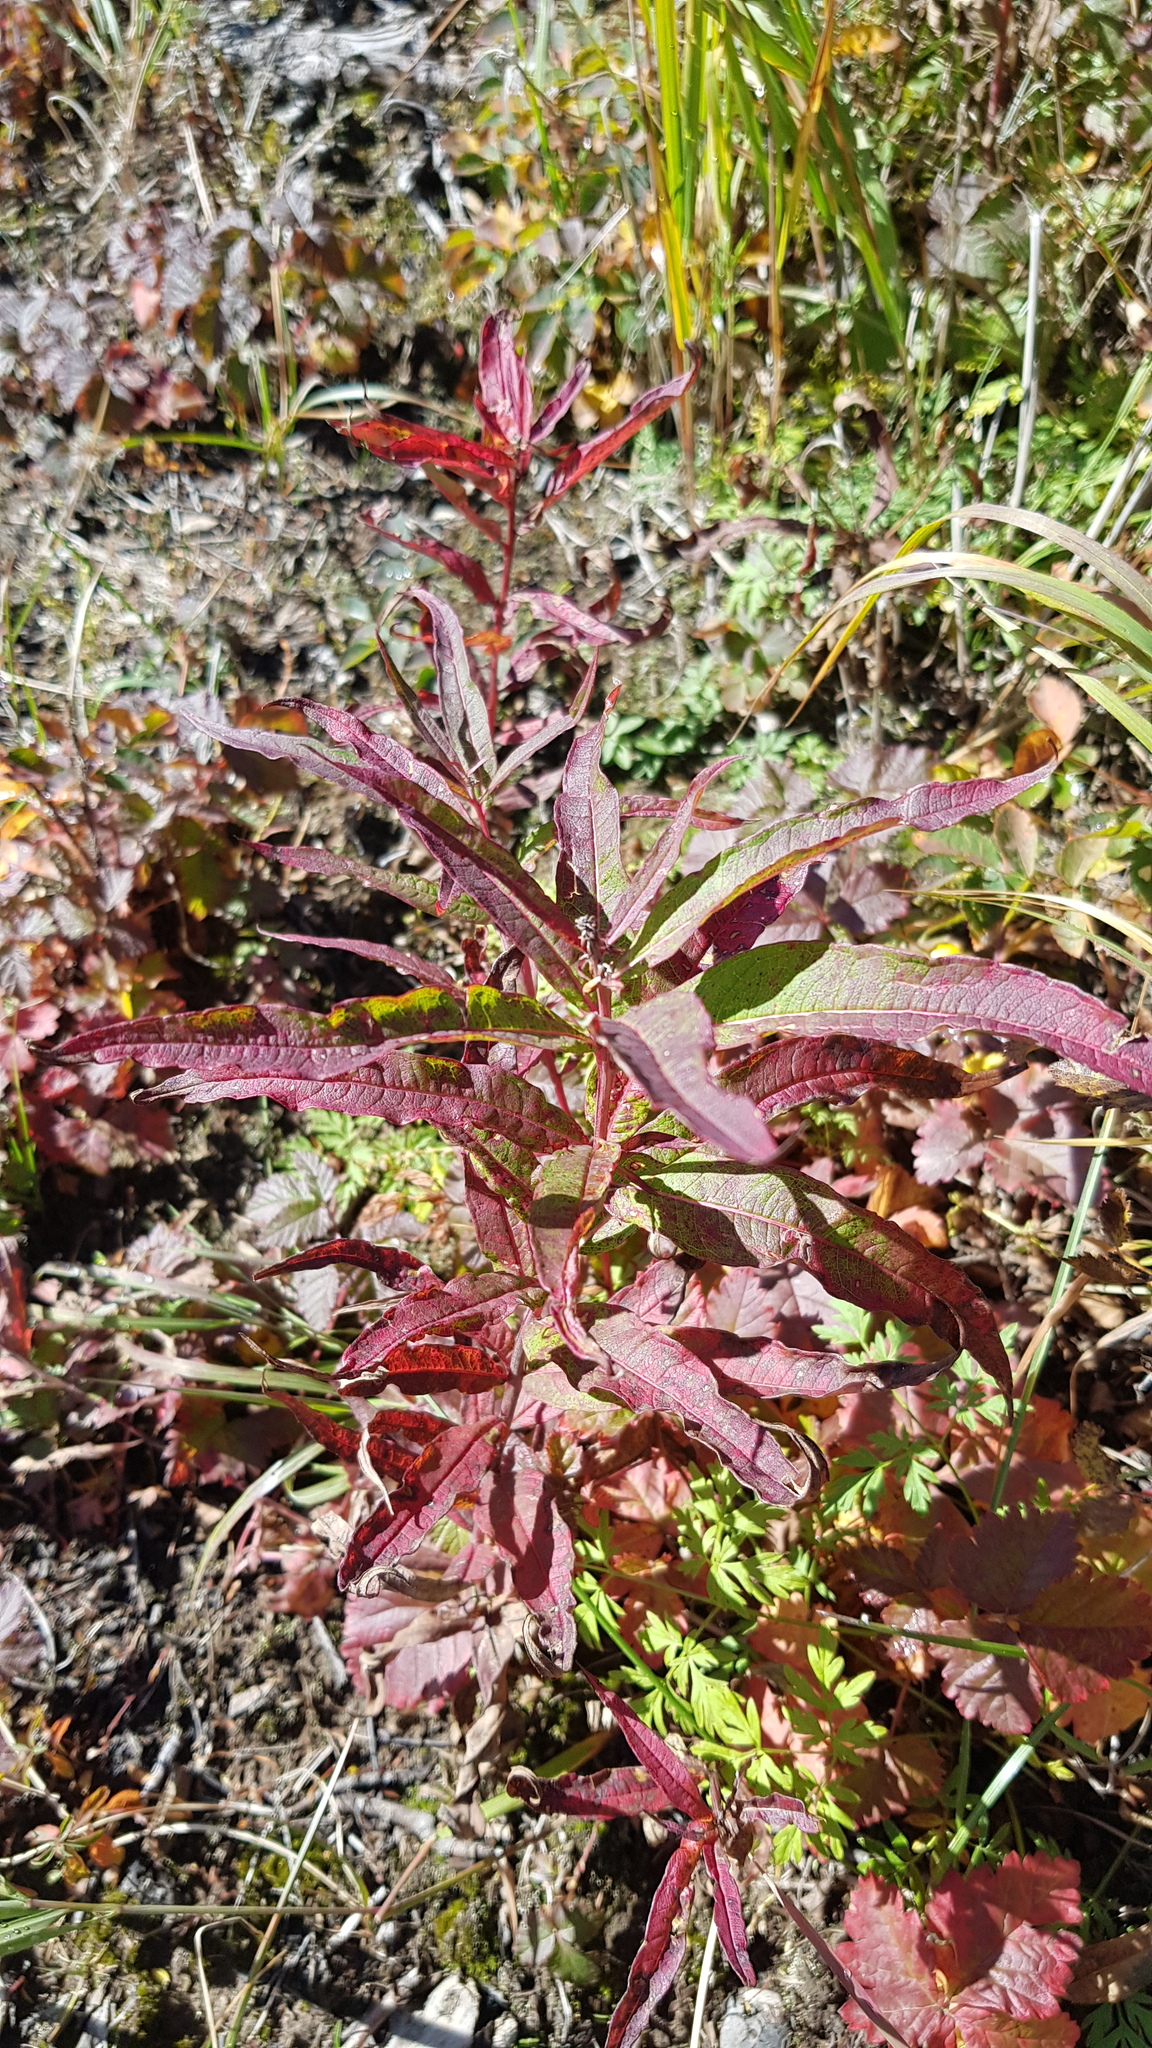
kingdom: Plantae
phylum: Tracheophyta
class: Magnoliopsida
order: Myrtales
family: Onagraceae
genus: Chamaenerion
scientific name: Chamaenerion angustifolium
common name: Fireweed
